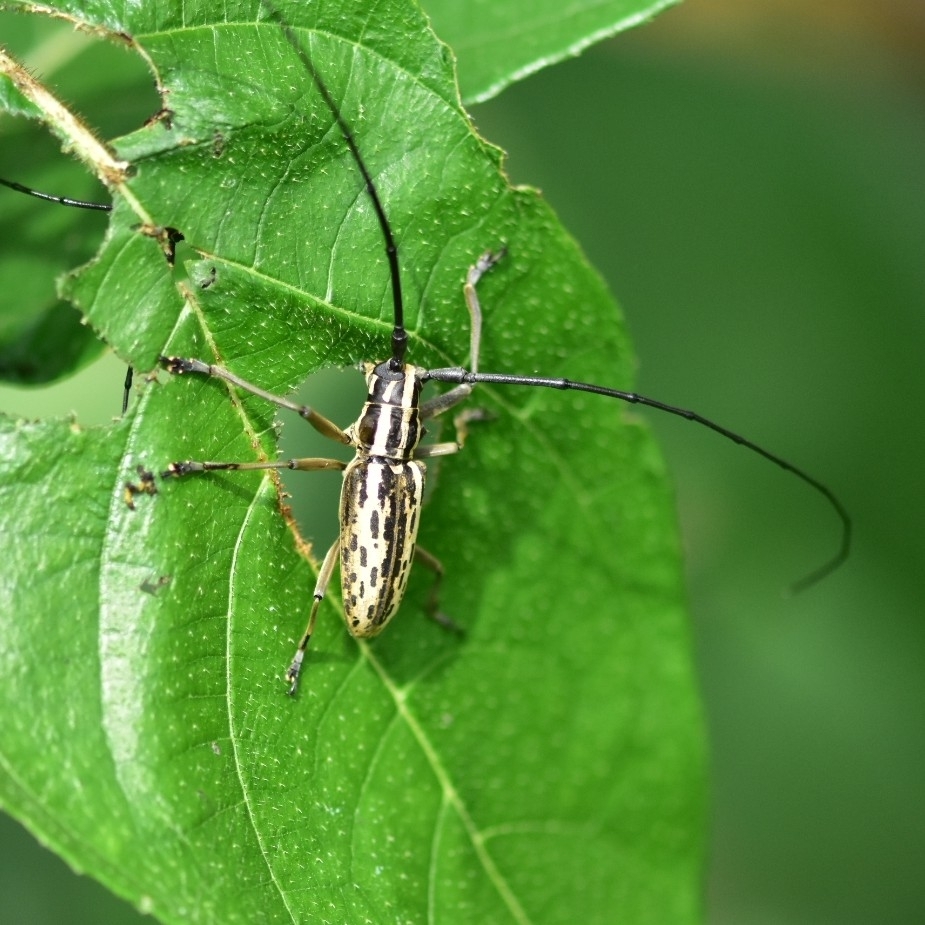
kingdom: Animalia
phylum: Arthropoda
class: Insecta
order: Coleoptera
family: Cerambycidae
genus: Epepeotes
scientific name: Epepeotes uncinatus
